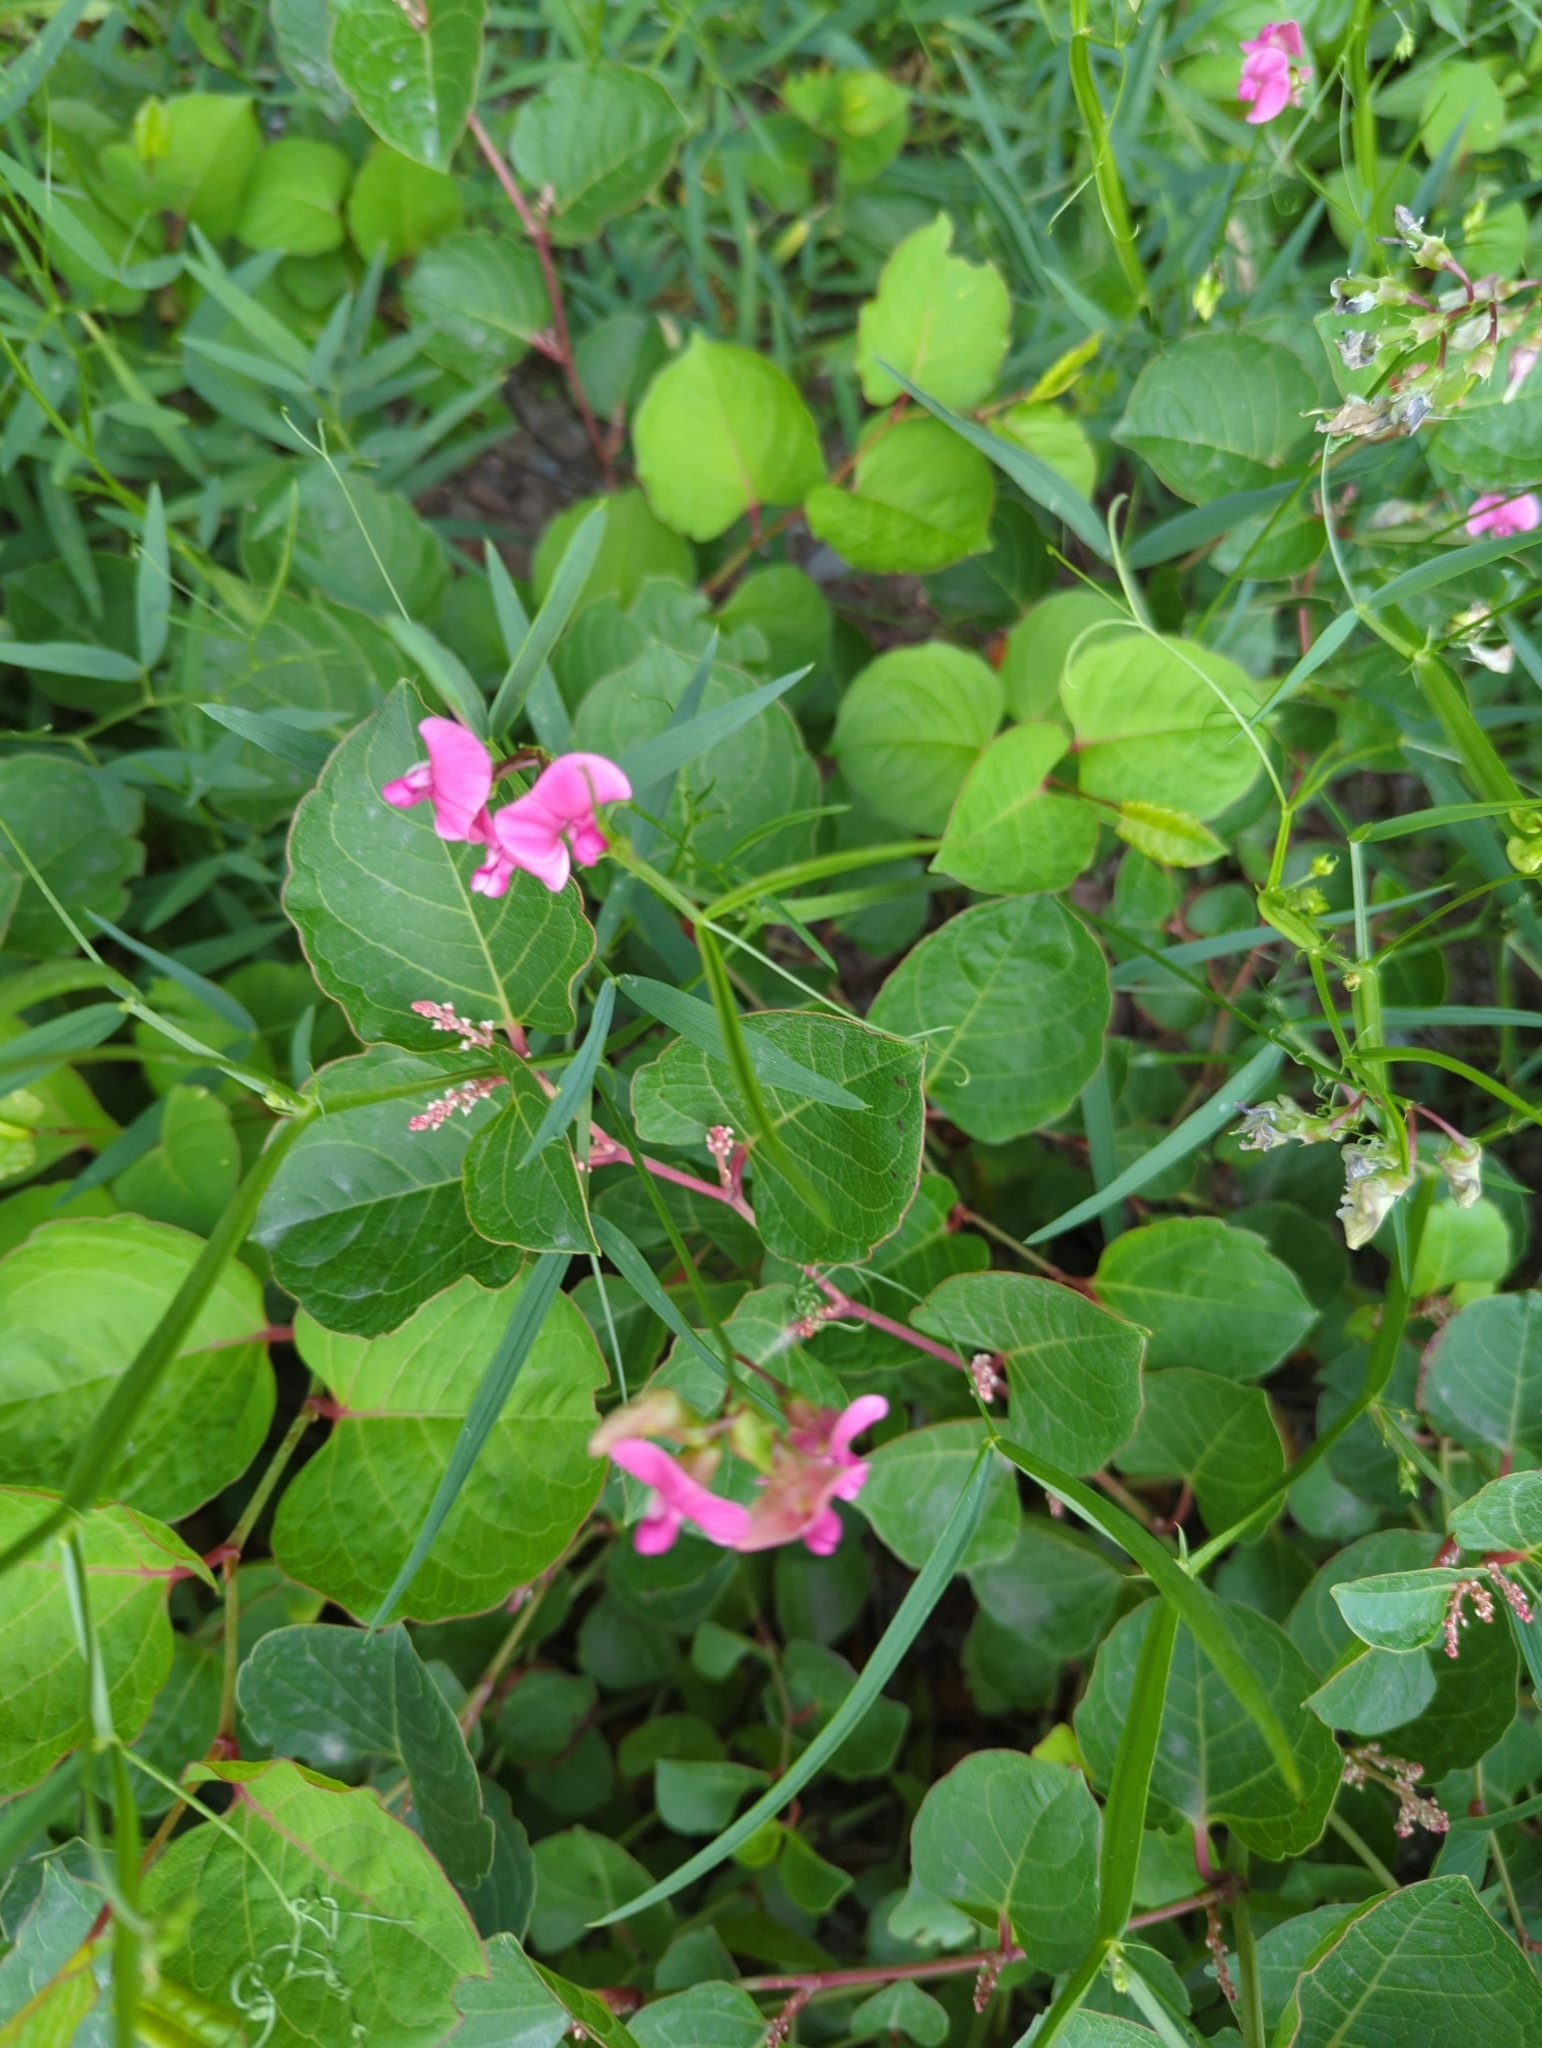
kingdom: Plantae
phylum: Tracheophyta
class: Magnoliopsida
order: Fabales
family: Fabaceae
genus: Lathyrus
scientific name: Lathyrus sylvestris
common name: Flat pea
